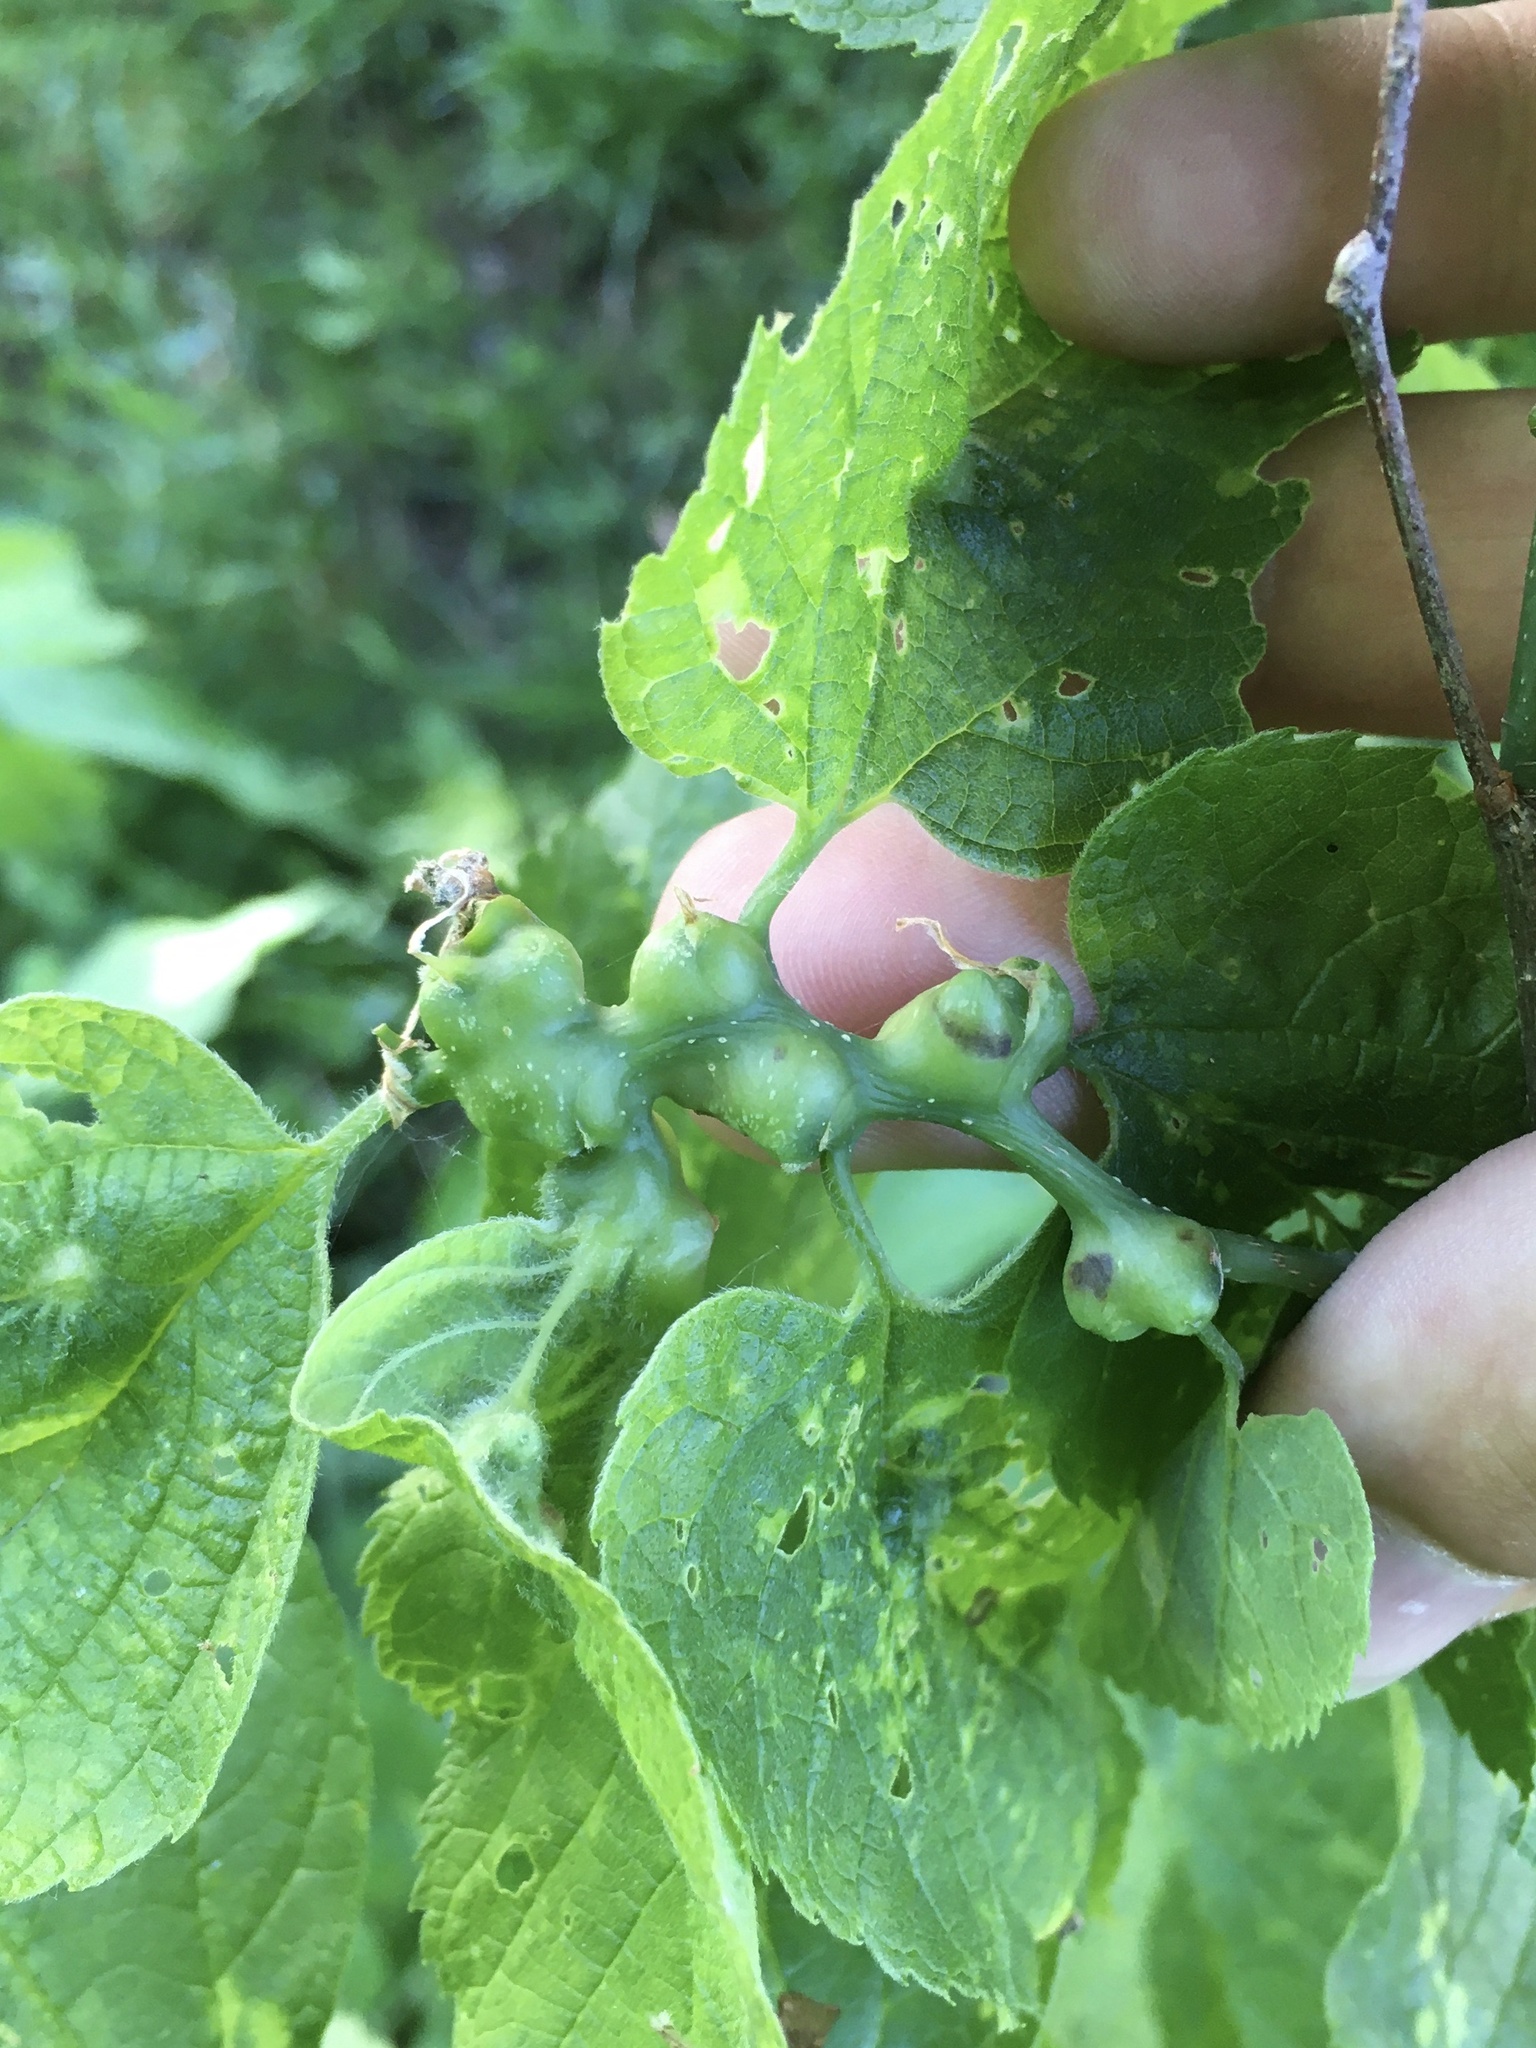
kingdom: Animalia
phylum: Arthropoda
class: Insecta
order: Diptera
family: Cecidomyiidae
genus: Celticecis
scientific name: Celticecis expulsa
